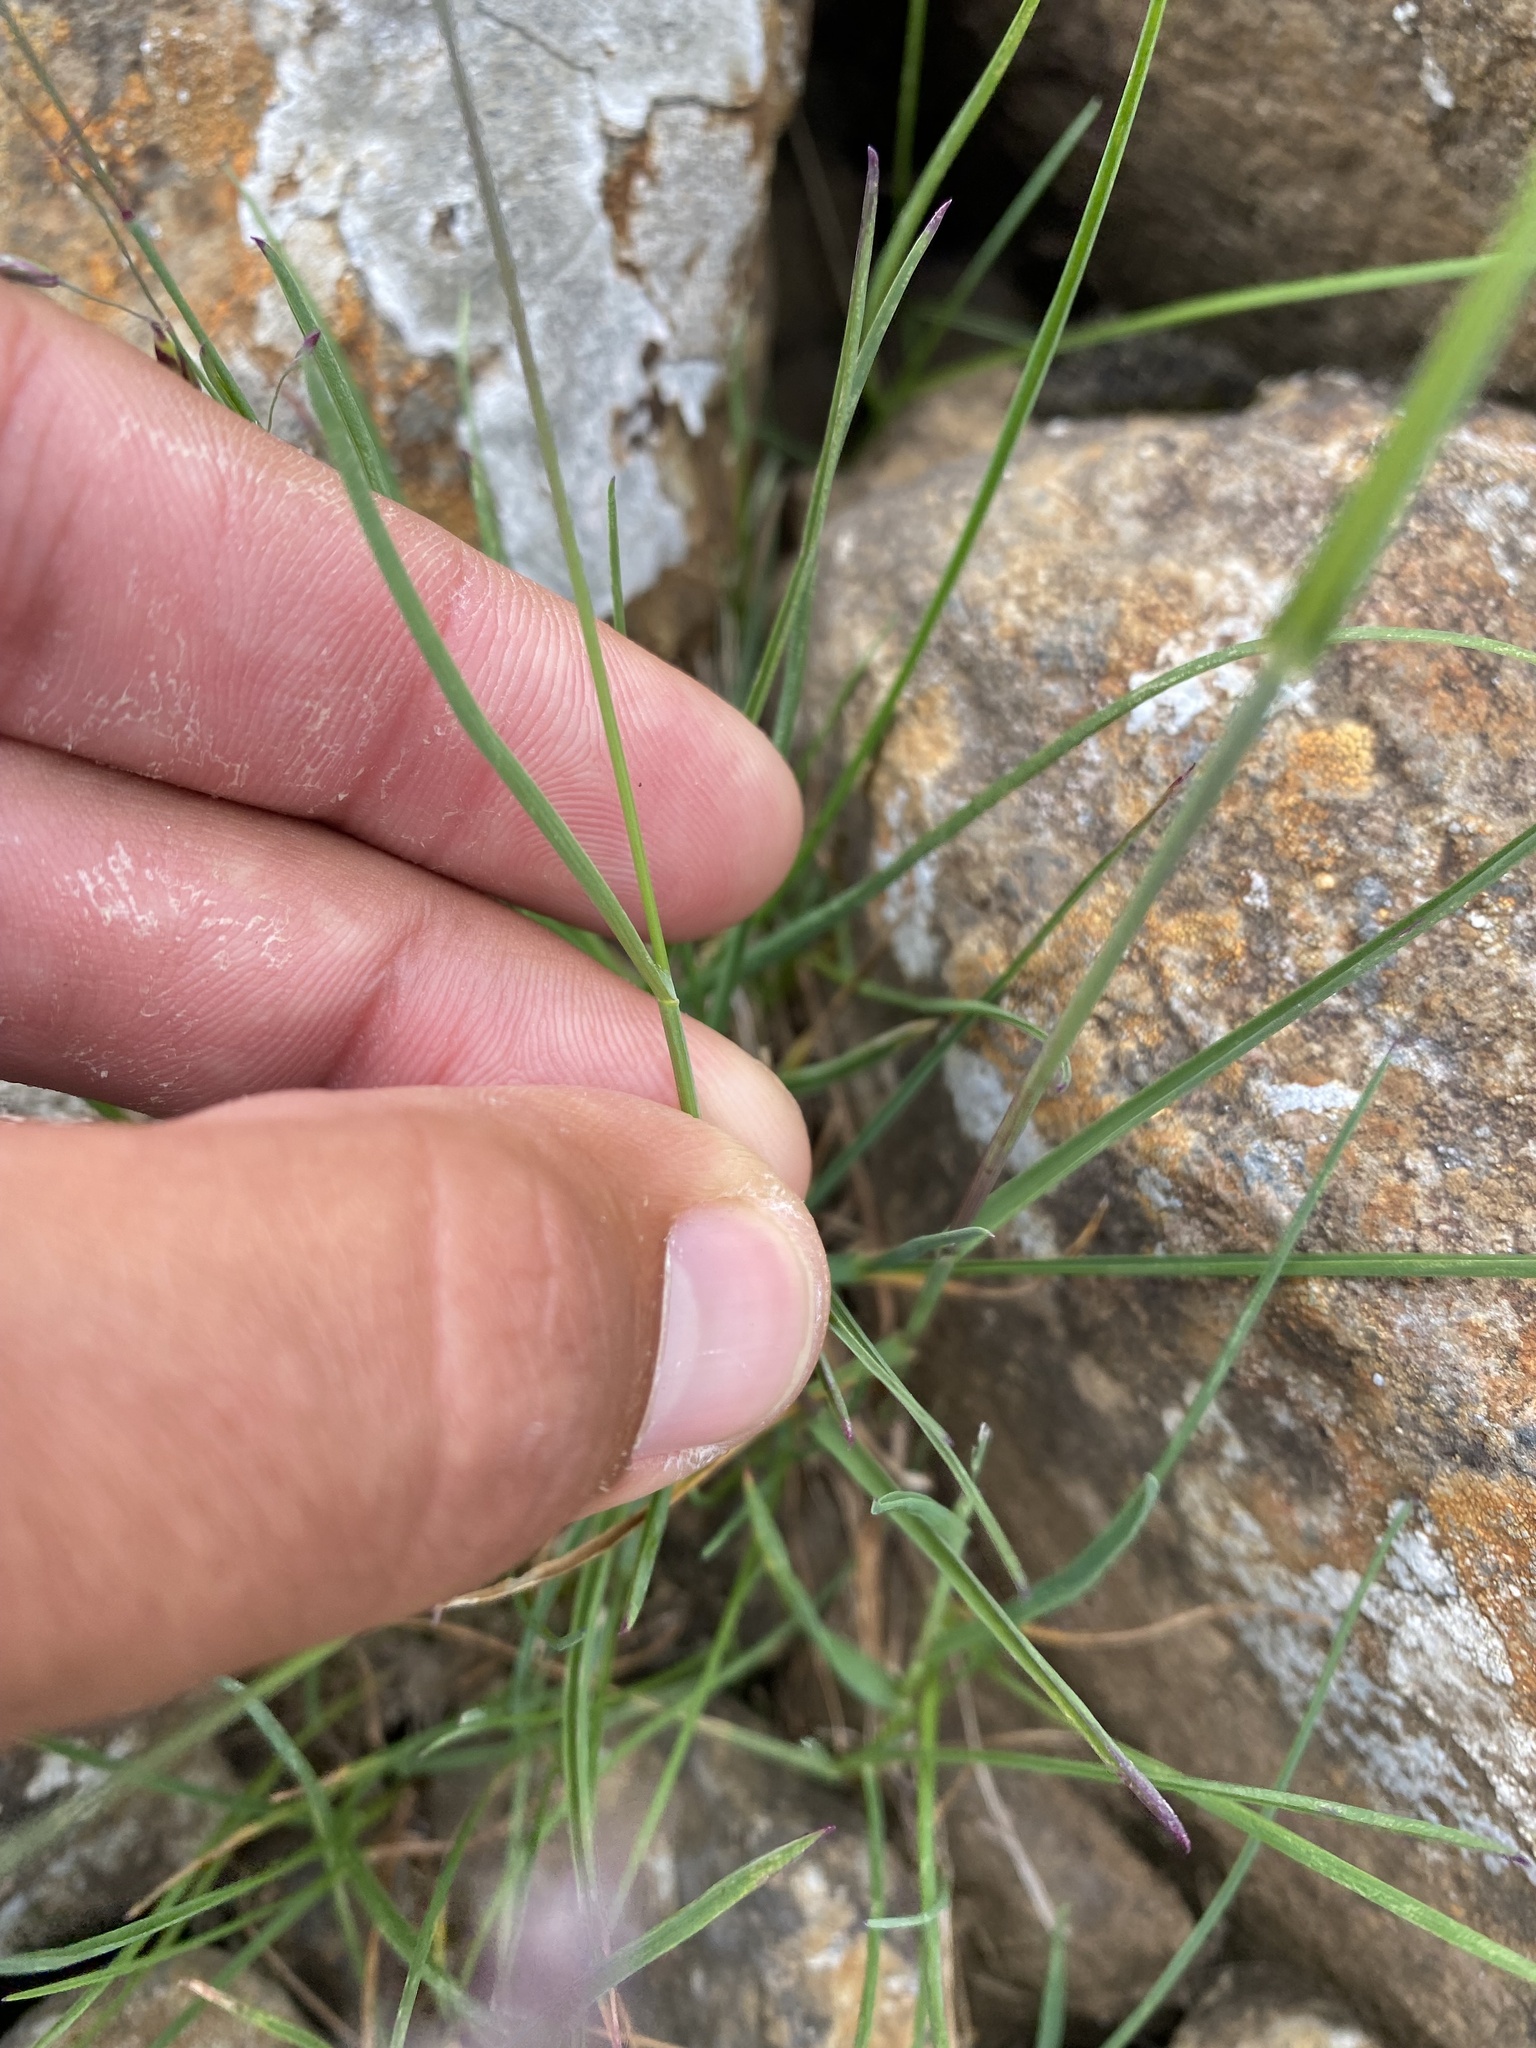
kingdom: Plantae
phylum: Tracheophyta
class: Liliopsida
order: Poales
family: Poaceae
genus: Poa
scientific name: Poa arctica
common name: Arctic bluegrass
